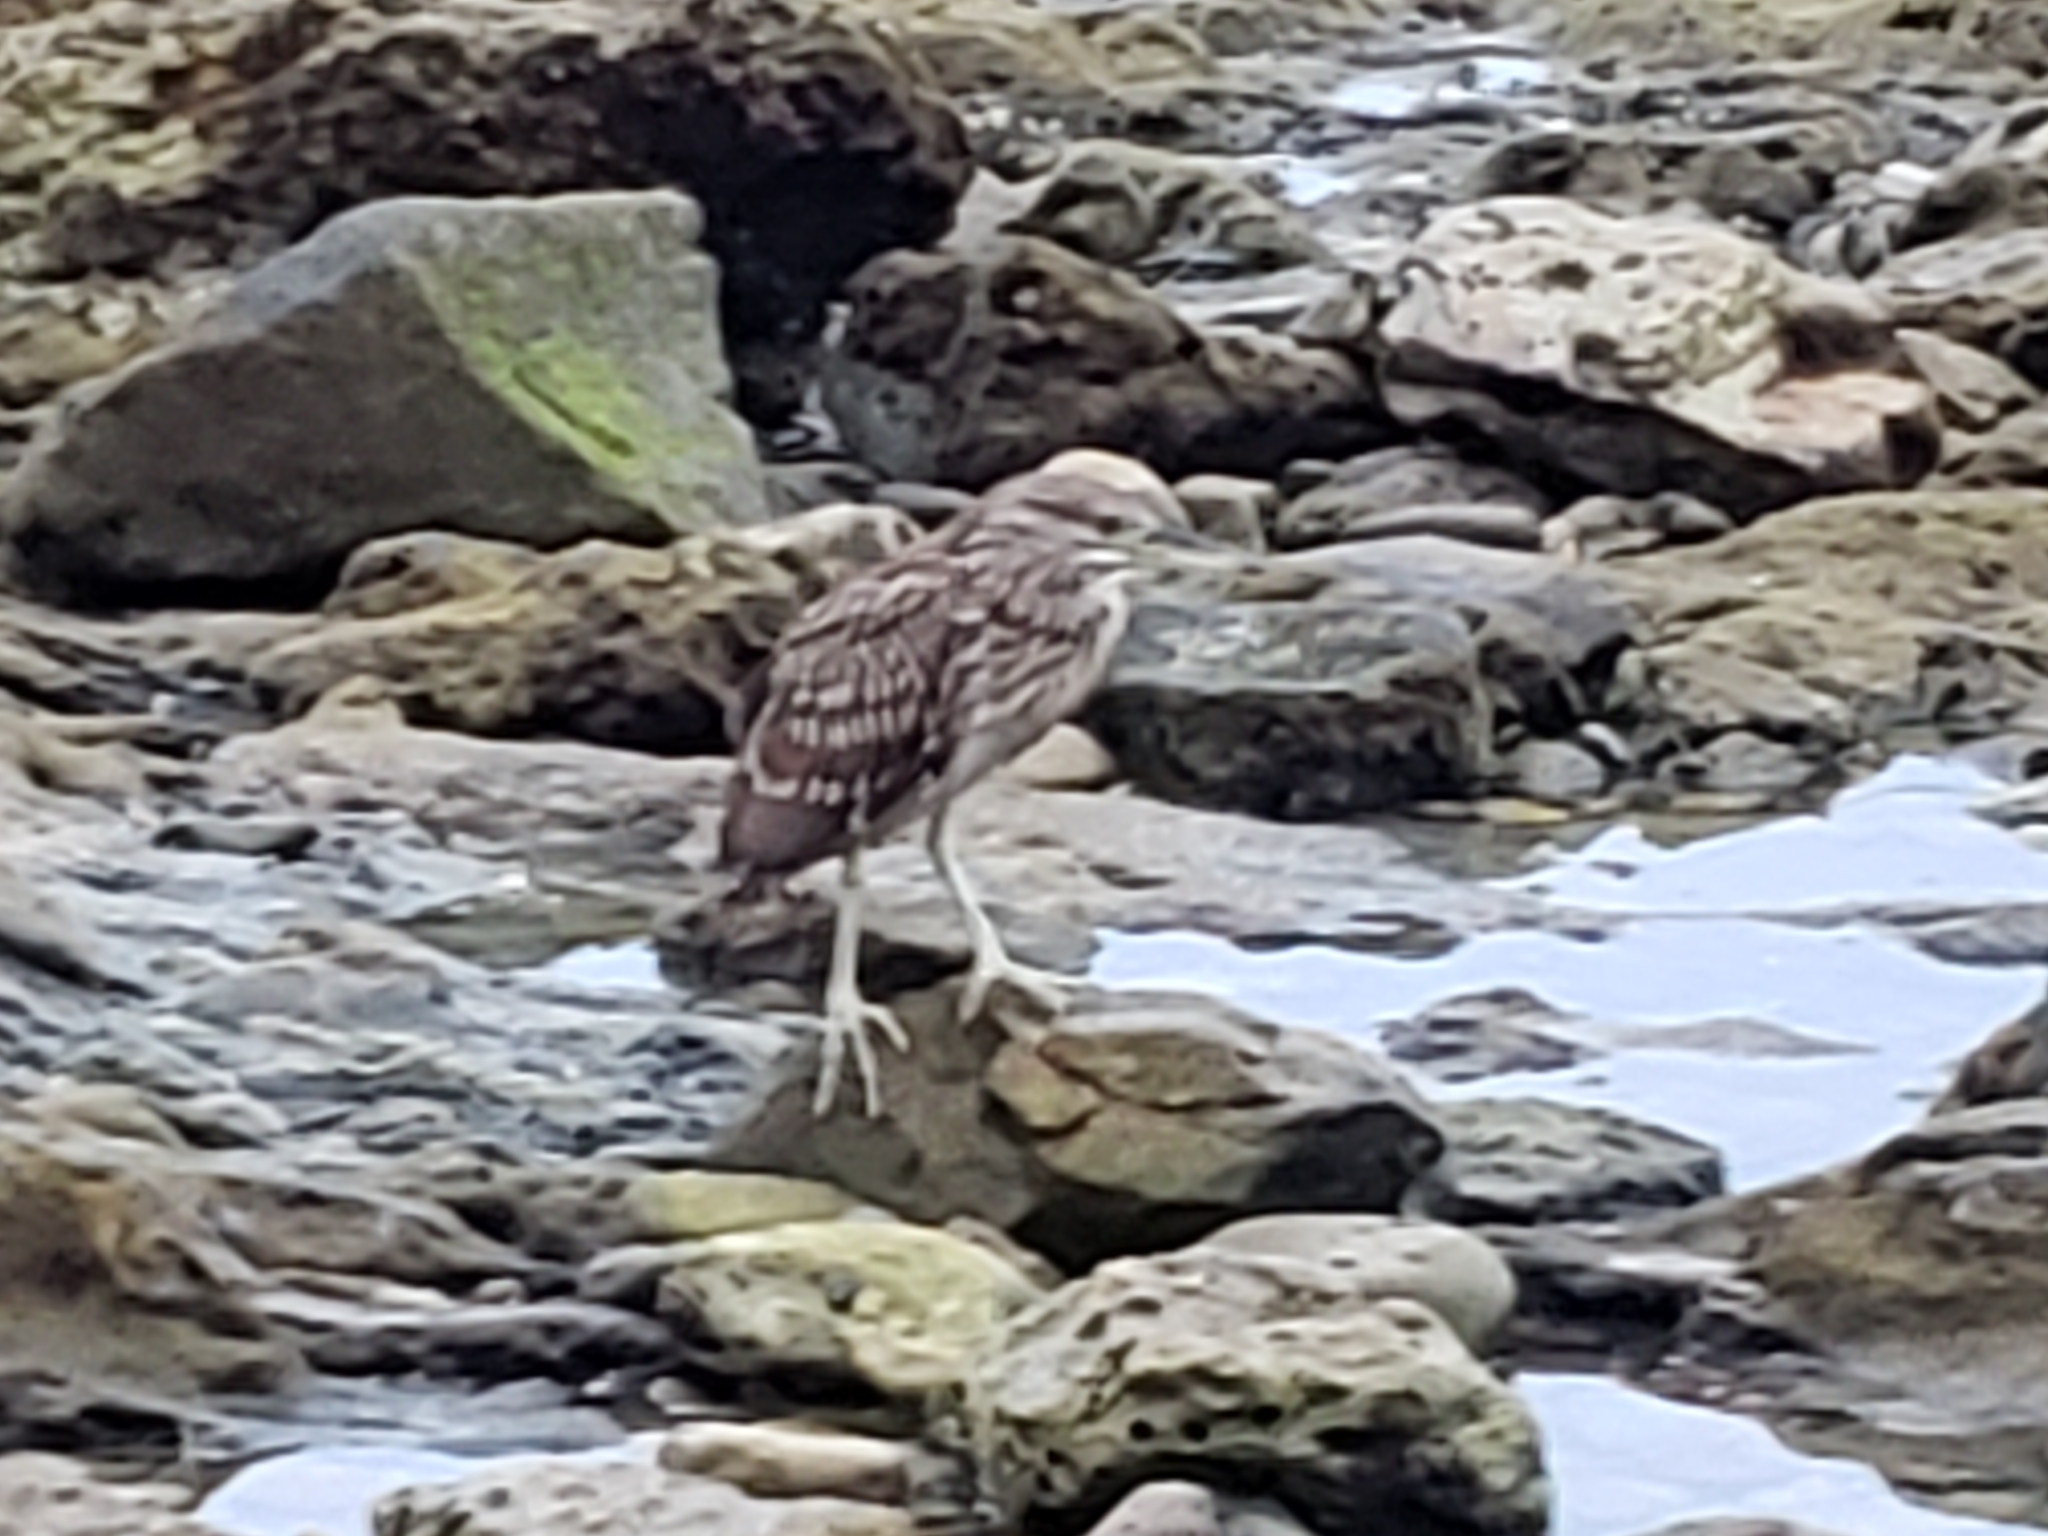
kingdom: Animalia
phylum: Chordata
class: Aves
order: Pelecaniformes
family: Ardeidae
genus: Nycticorax
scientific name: Nycticorax nycticorax
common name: Black-crowned night heron
